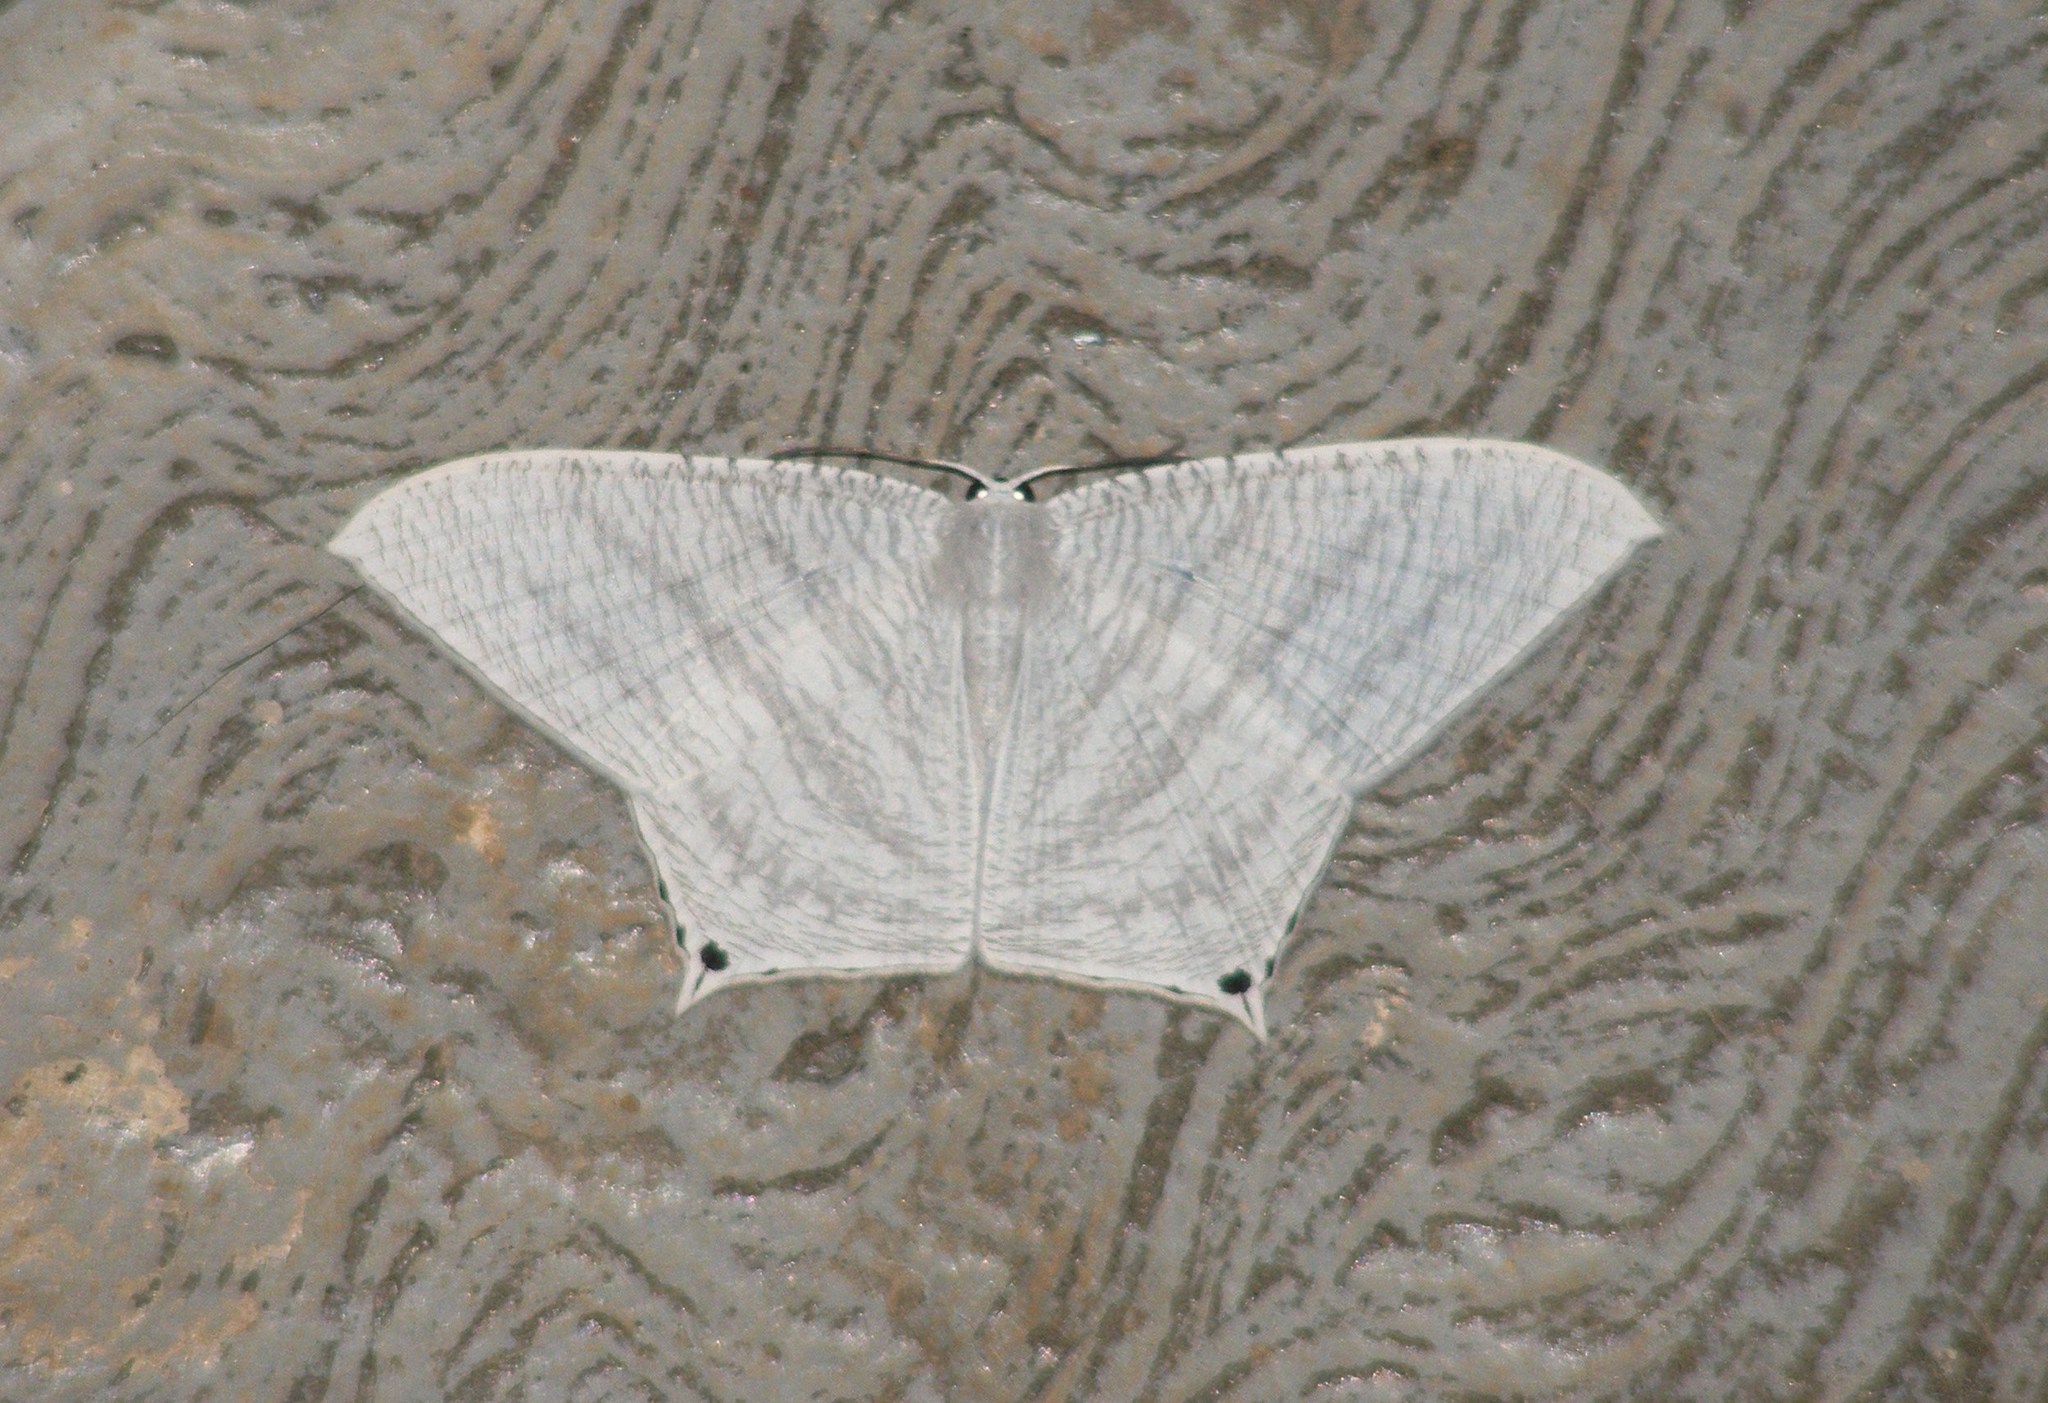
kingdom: Animalia
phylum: Arthropoda
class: Insecta
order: Lepidoptera
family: Uraniidae
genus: Micronia
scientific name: Micronia aculeata
